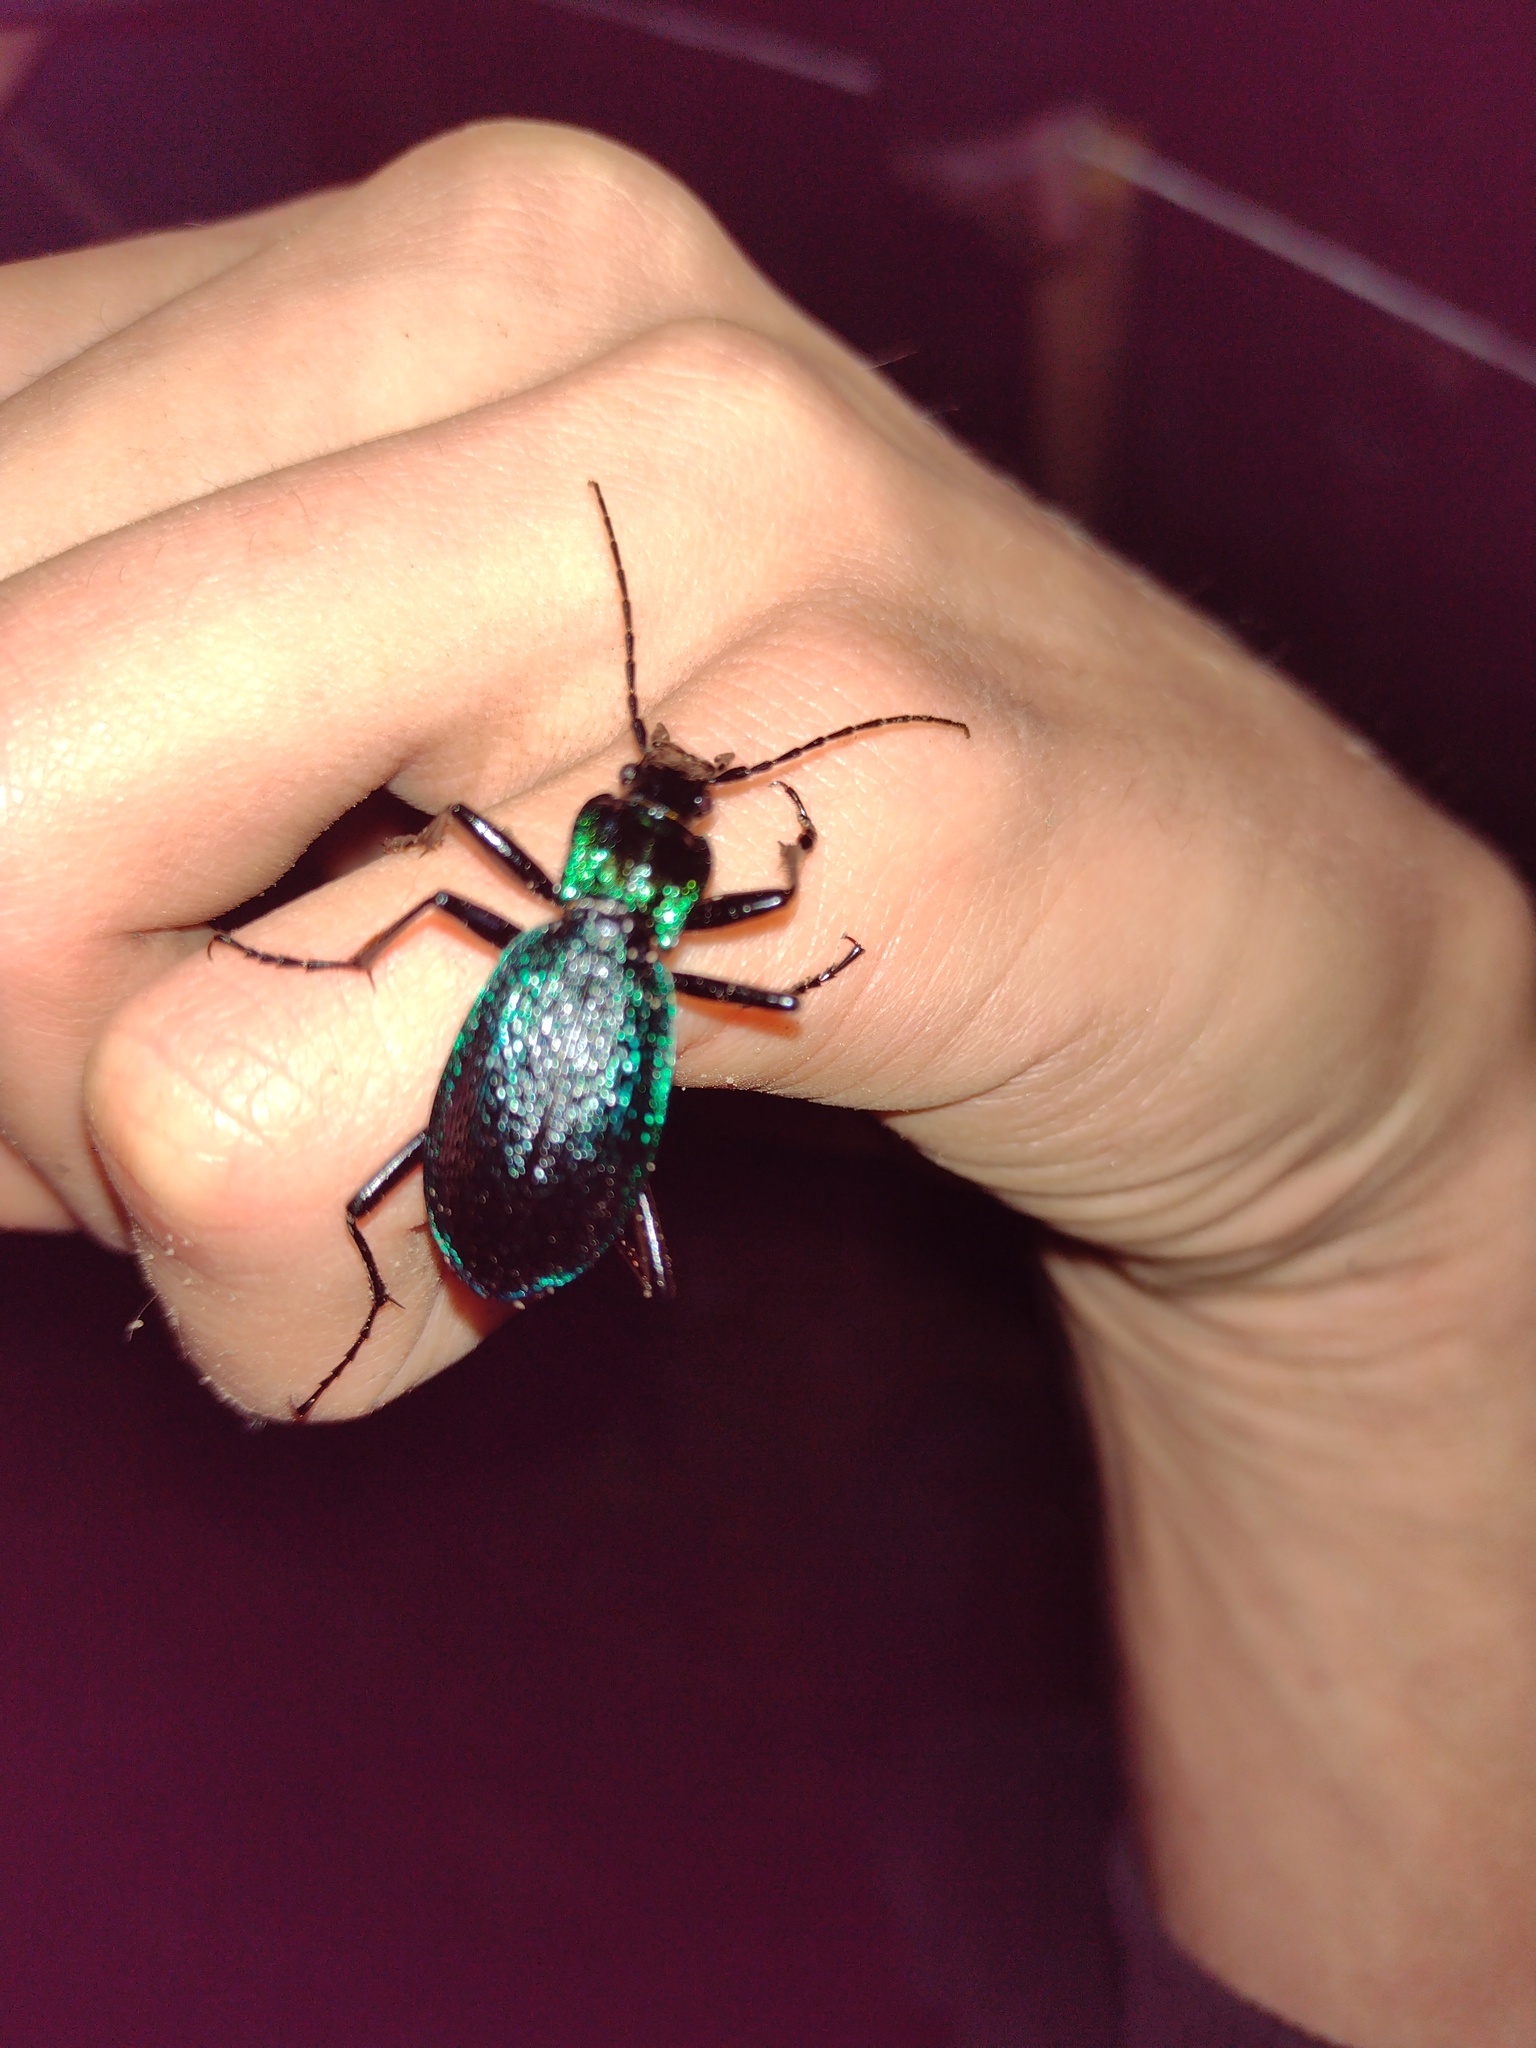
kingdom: Animalia
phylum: Arthropoda
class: Insecta
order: Coleoptera
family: Carabidae
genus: Carabus
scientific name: Carabus intricatus
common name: Blue ground beetle
